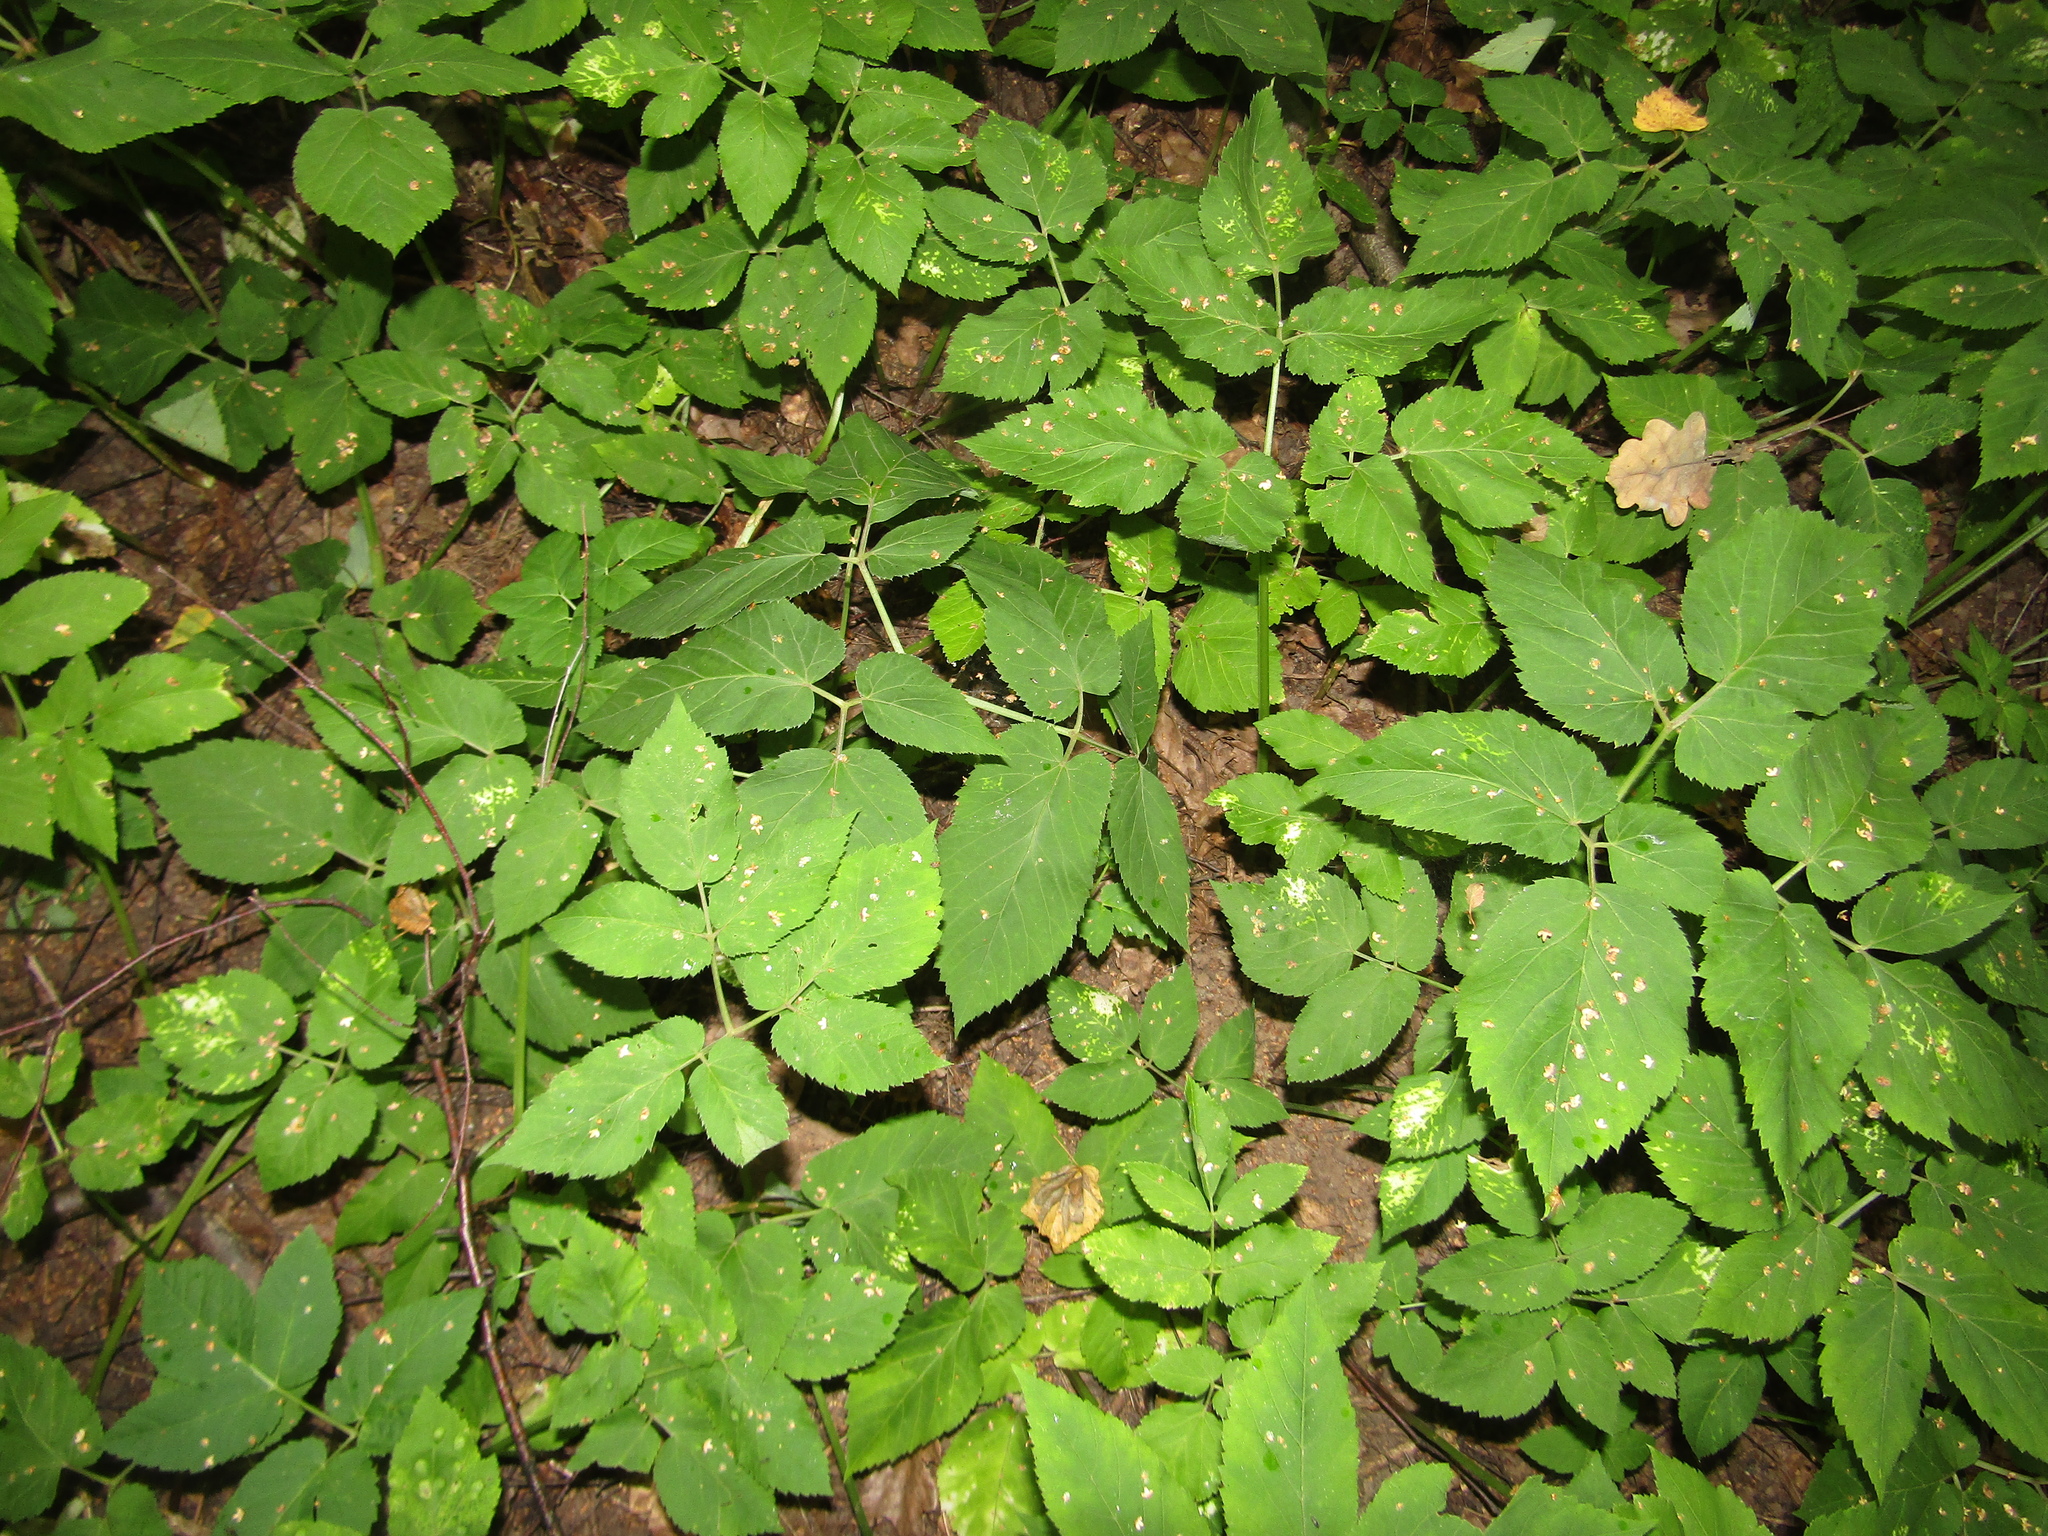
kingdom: Plantae
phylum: Tracheophyta
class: Magnoliopsida
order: Apiales
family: Apiaceae
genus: Aegopodium
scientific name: Aegopodium podagraria
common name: Ground-elder
